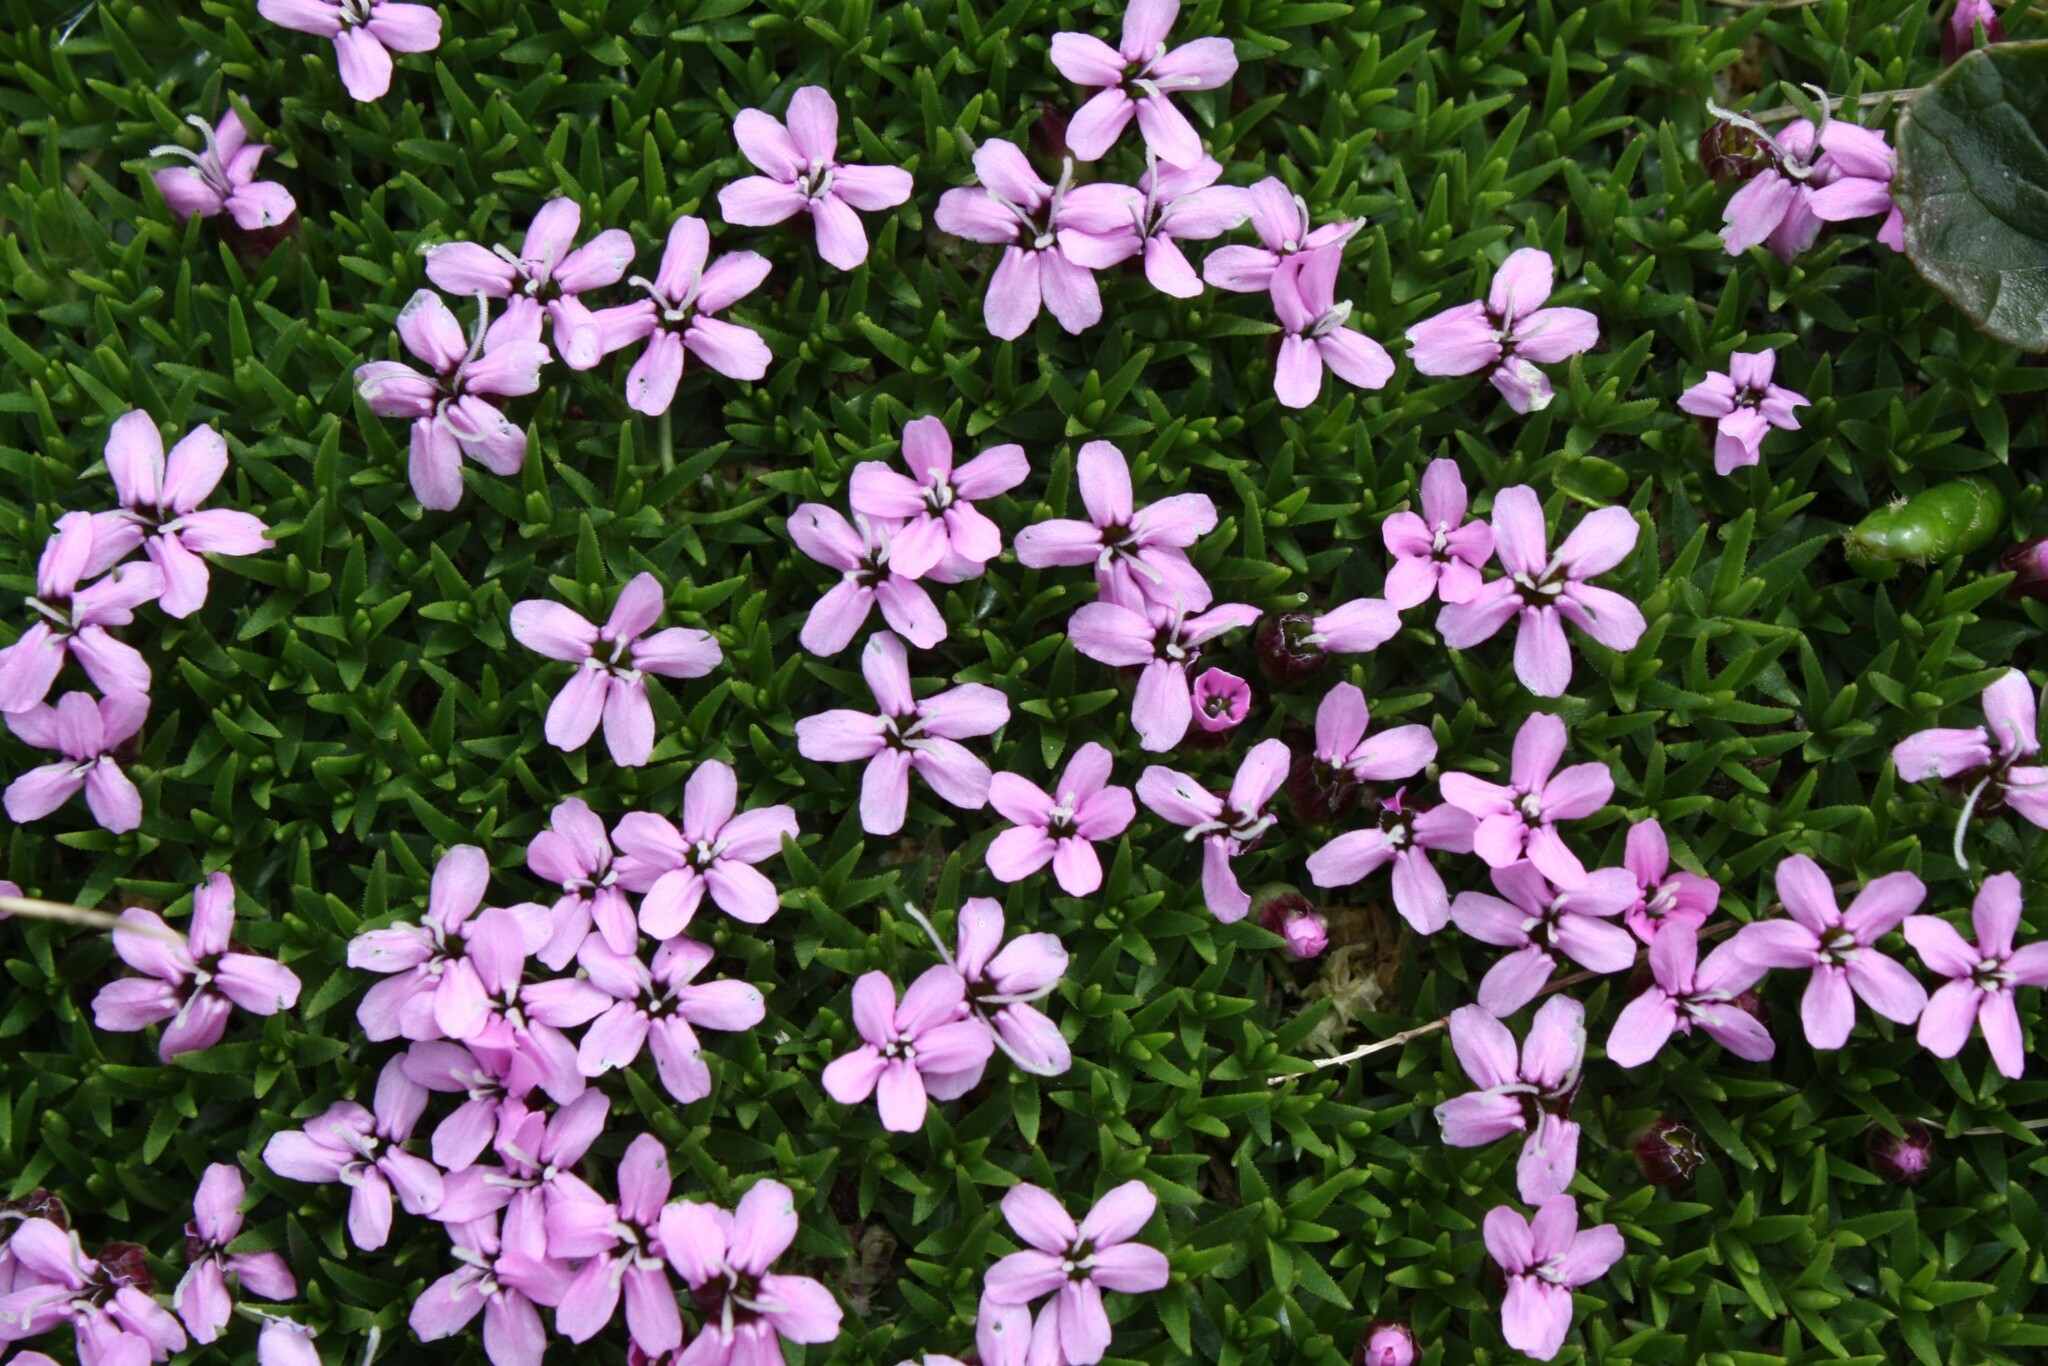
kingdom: Plantae
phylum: Tracheophyta
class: Magnoliopsida
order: Caryophyllales
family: Caryophyllaceae
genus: Silene
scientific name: Silene acaulis
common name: Moss campion
